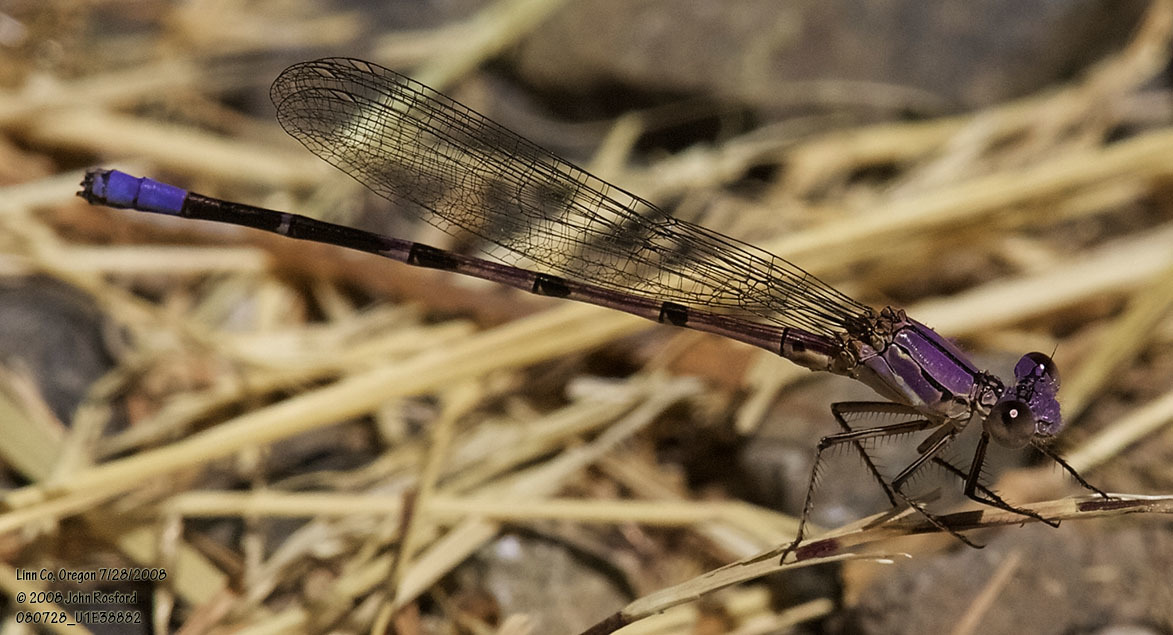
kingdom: Animalia
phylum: Arthropoda
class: Insecta
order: Odonata
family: Coenagrionidae
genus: Argia
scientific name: Argia emma
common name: Emma's dancer
